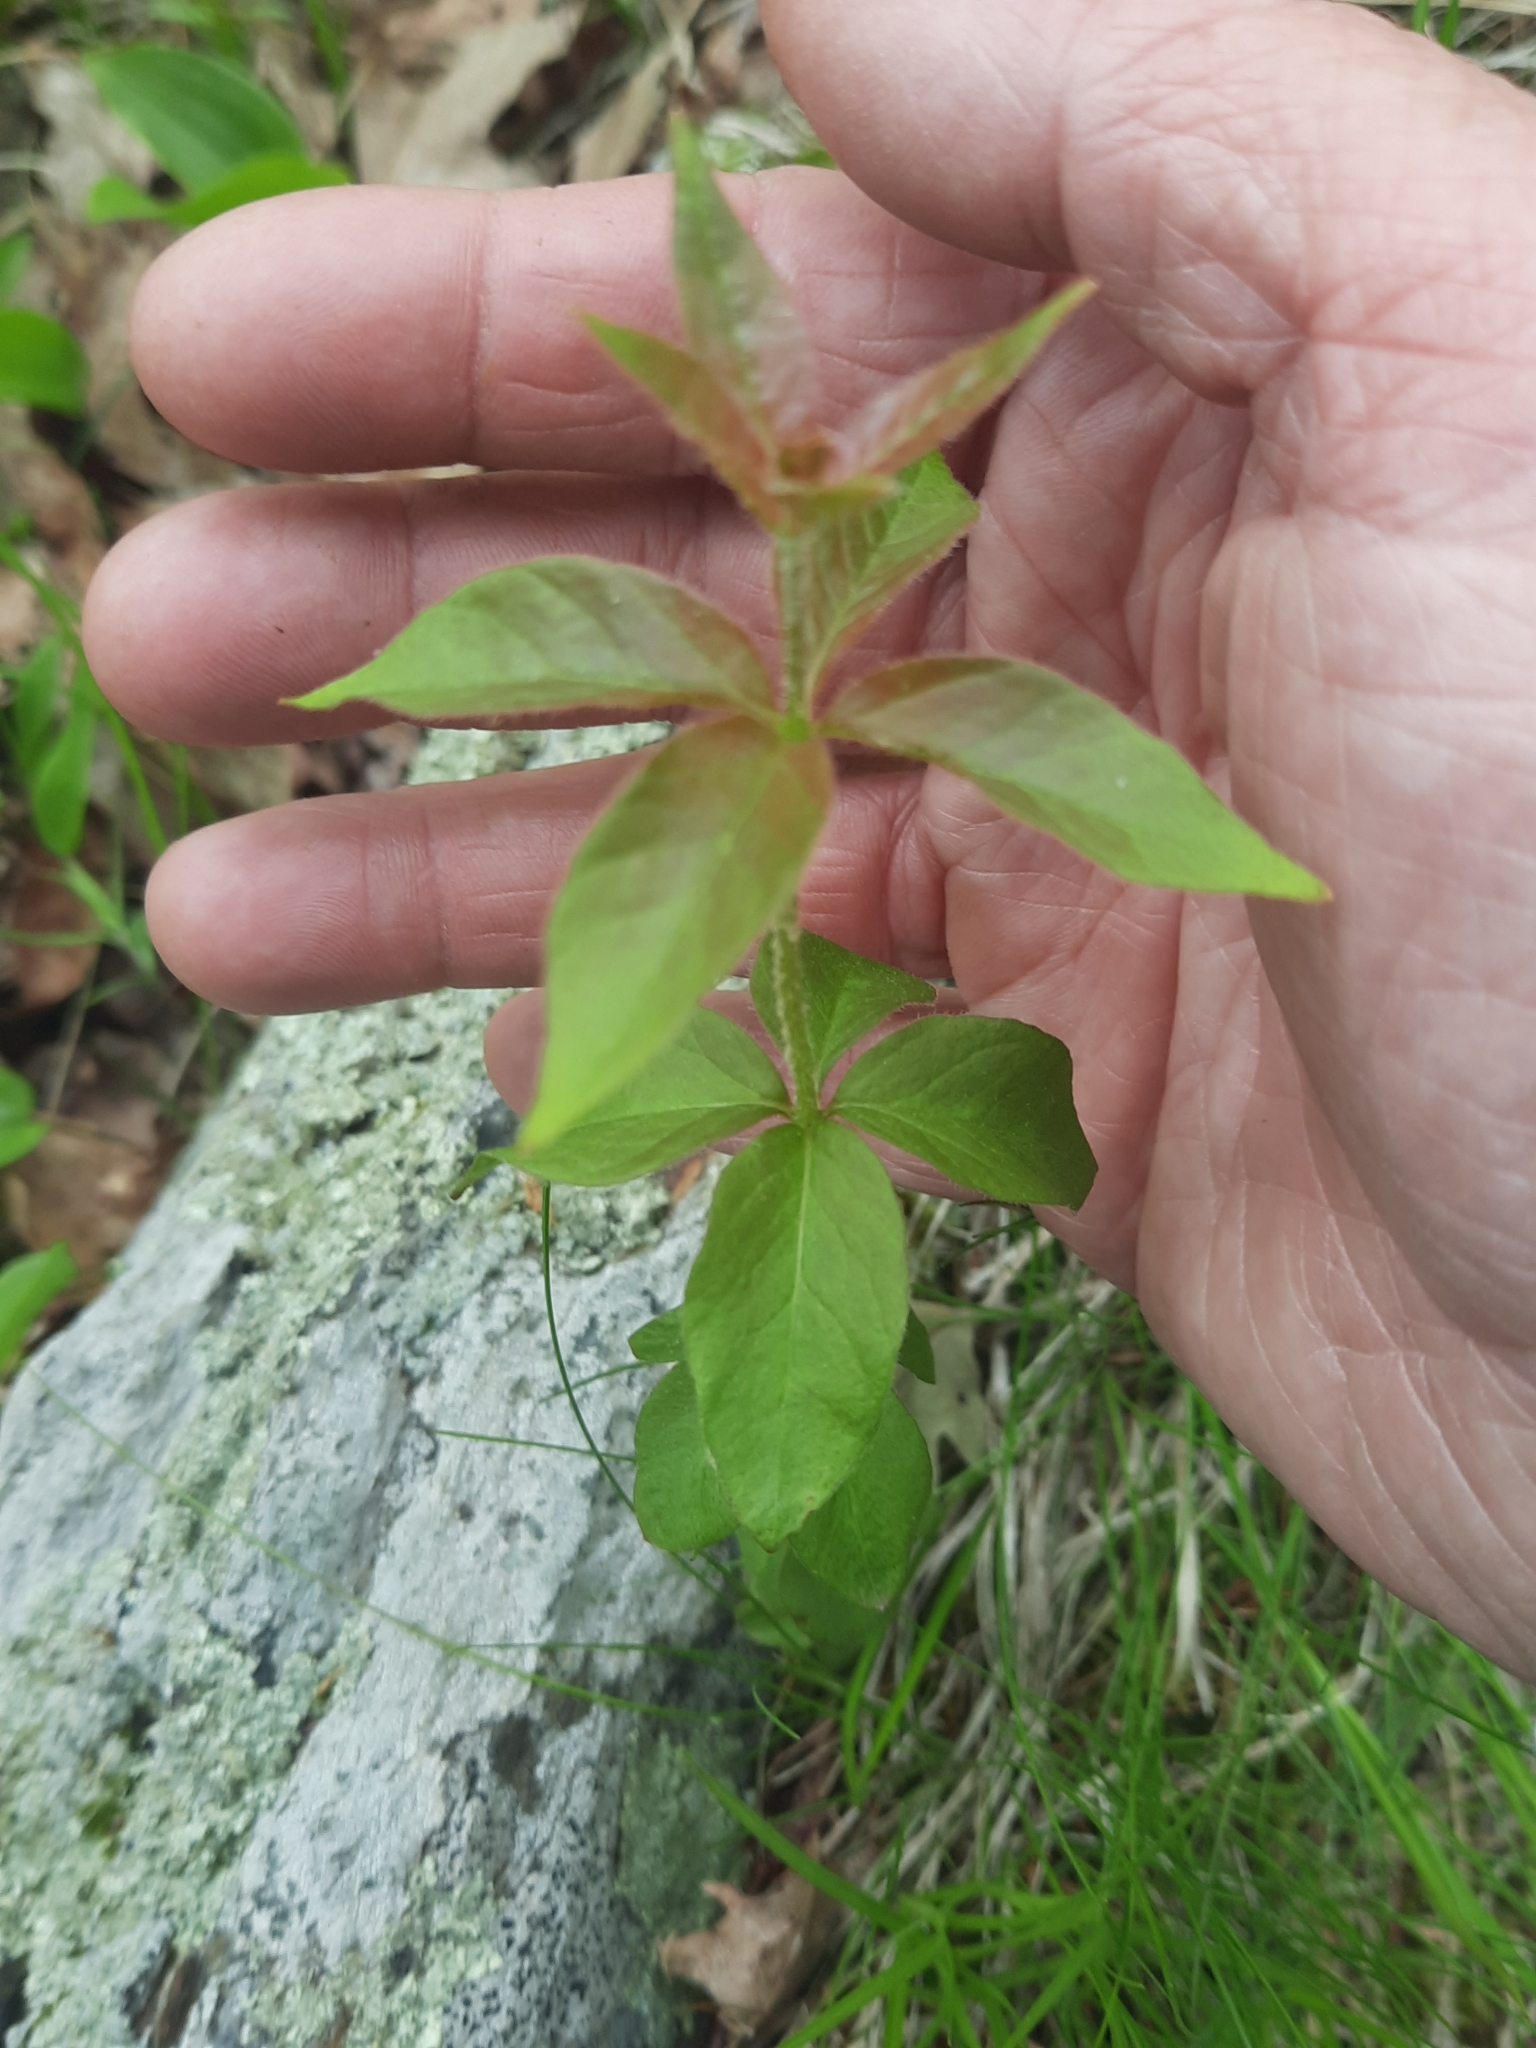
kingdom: Plantae
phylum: Tracheophyta
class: Magnoliopsida
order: Ericales
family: Primulaceae
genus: Lysimachia
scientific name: Lysimachia quadrifolia
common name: Whorled loosestrife
